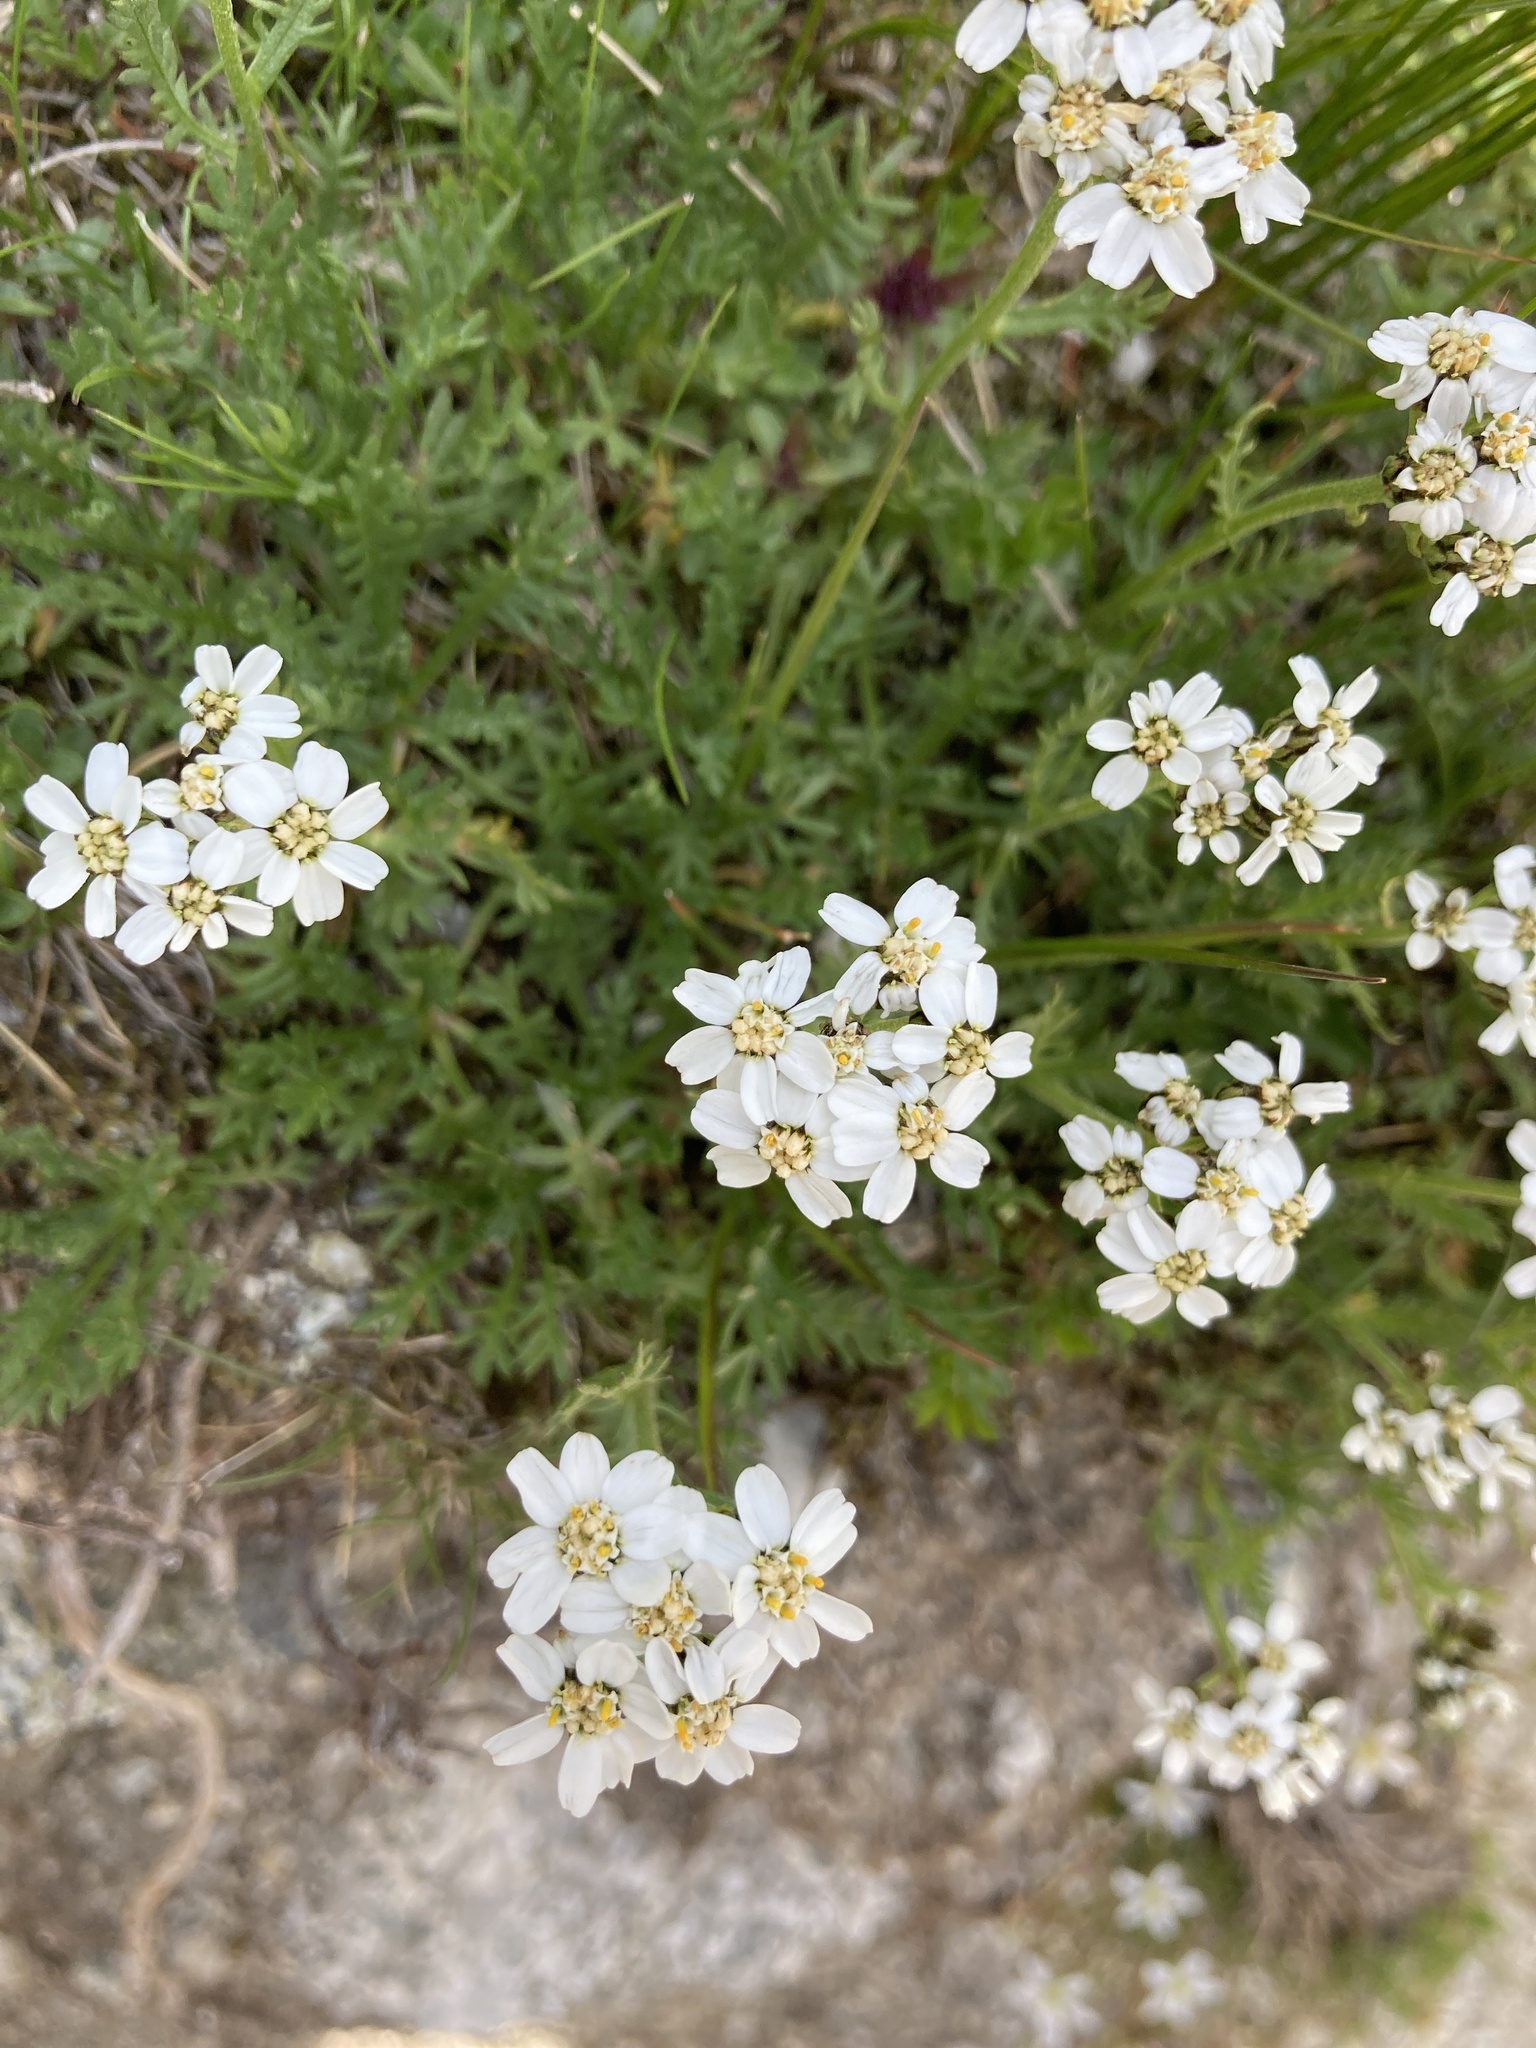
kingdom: Plantae
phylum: Tracheophyta
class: Magnoliopsida
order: Asterales
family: Asteraceae
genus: Achillea
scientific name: Achillea erba-rotta
